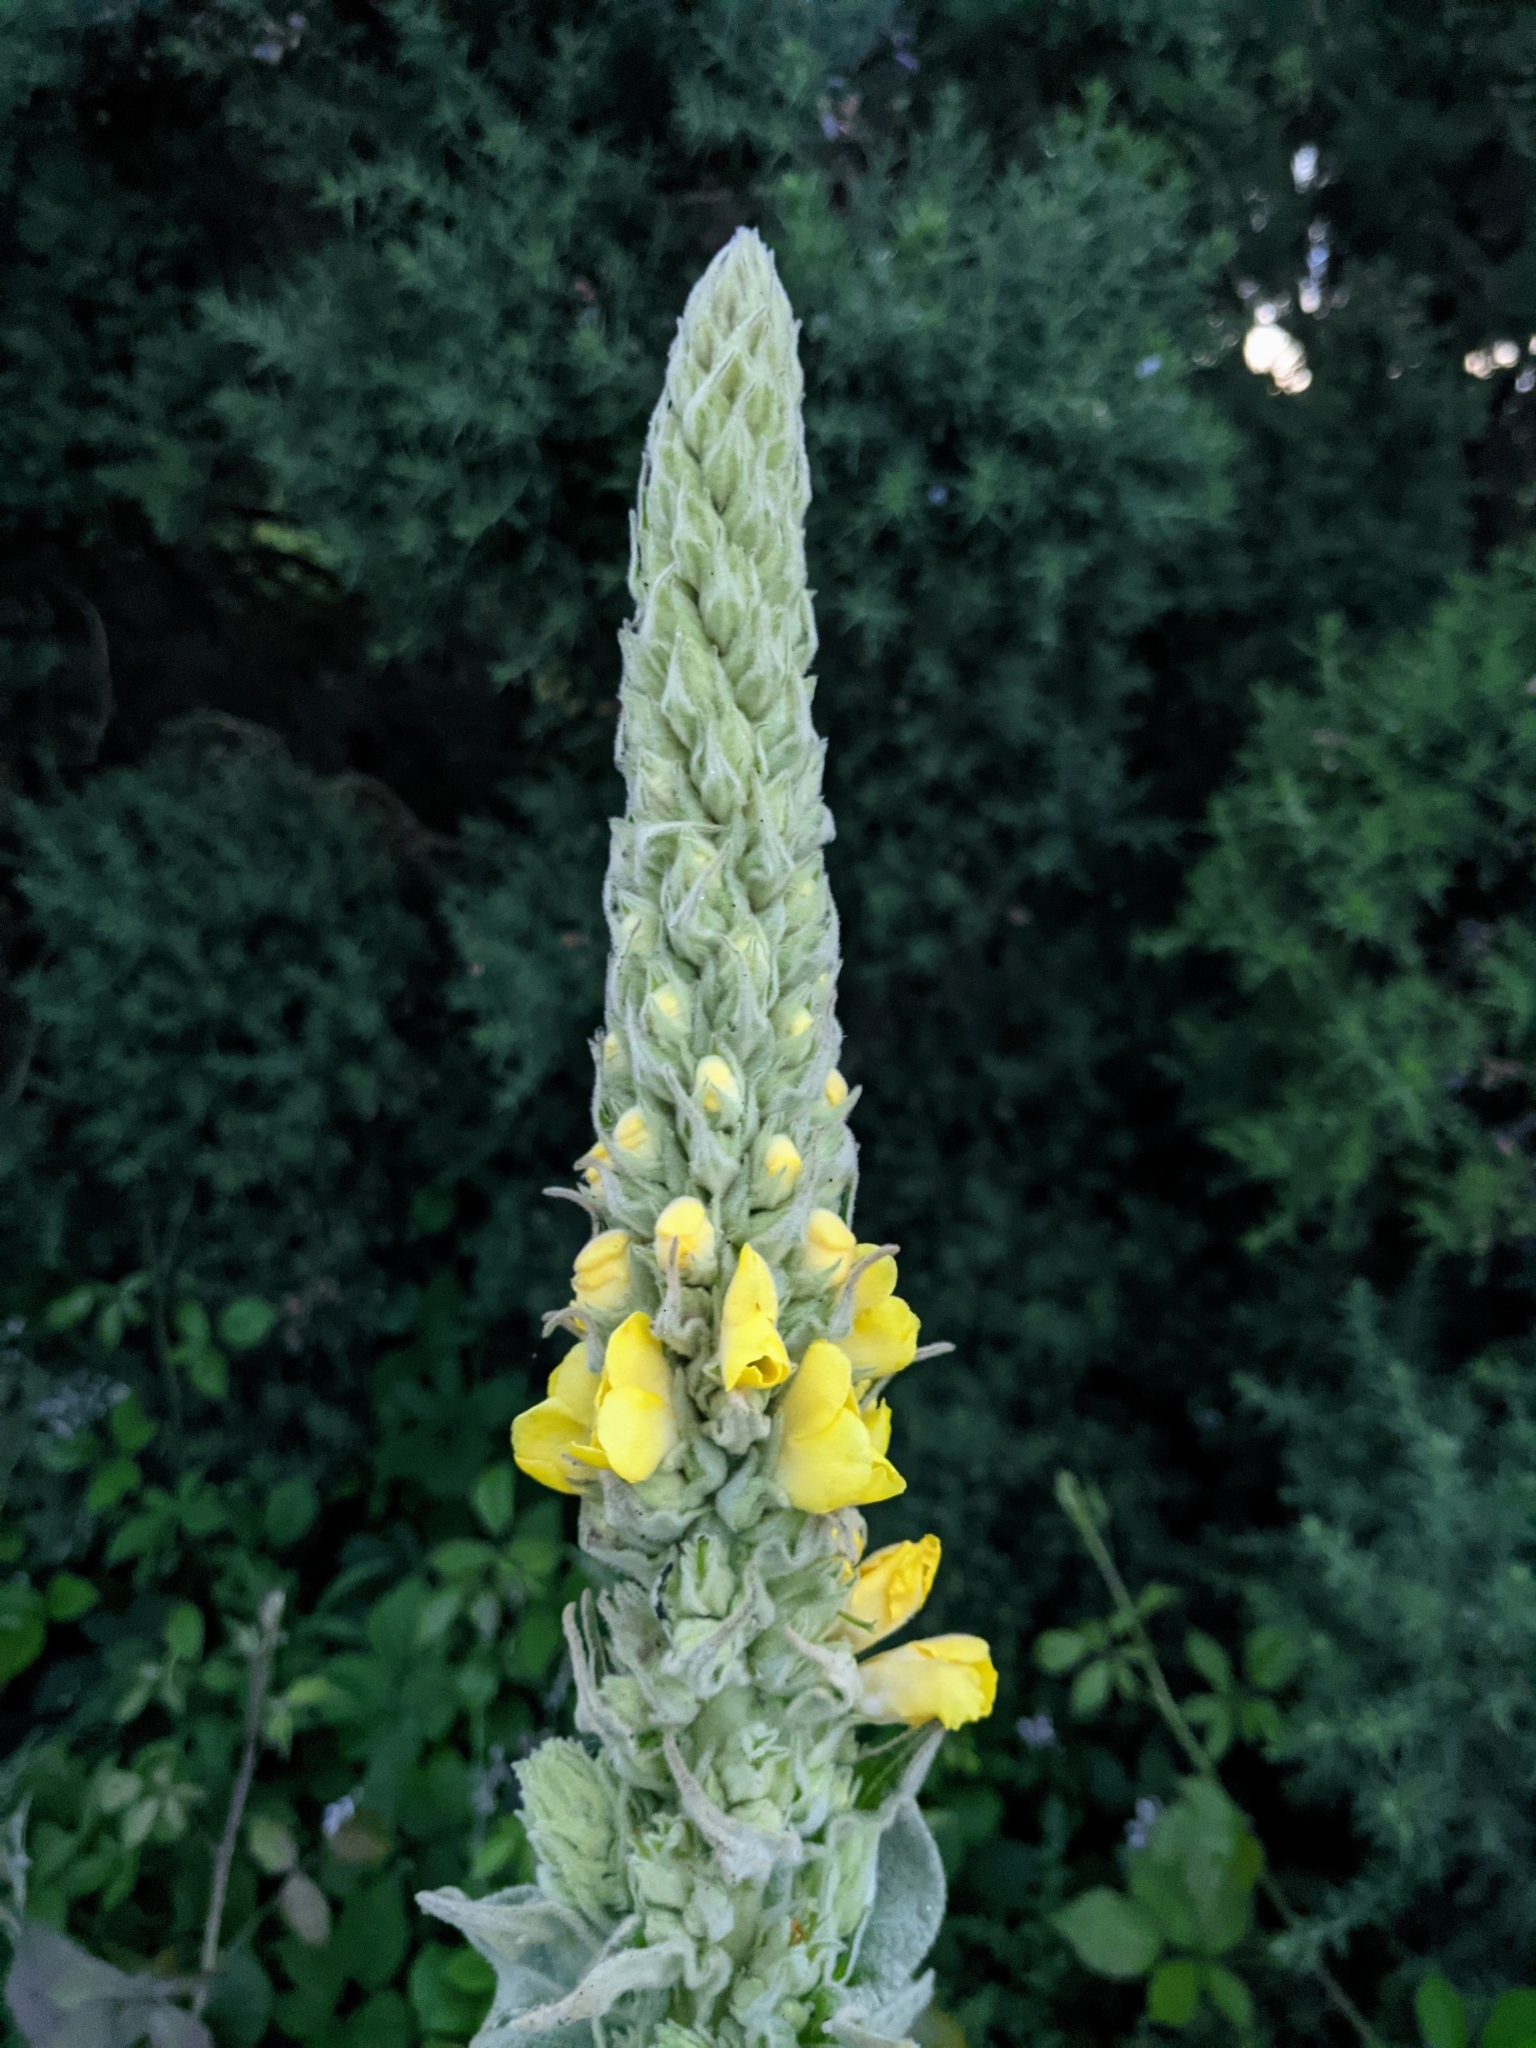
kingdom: Plantae
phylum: Tracheophyta
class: Magnoliopsida
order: Lamiales
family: Scrophulariaceae
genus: Verbascum
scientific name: Verbascum thapsus
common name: Common mullein
